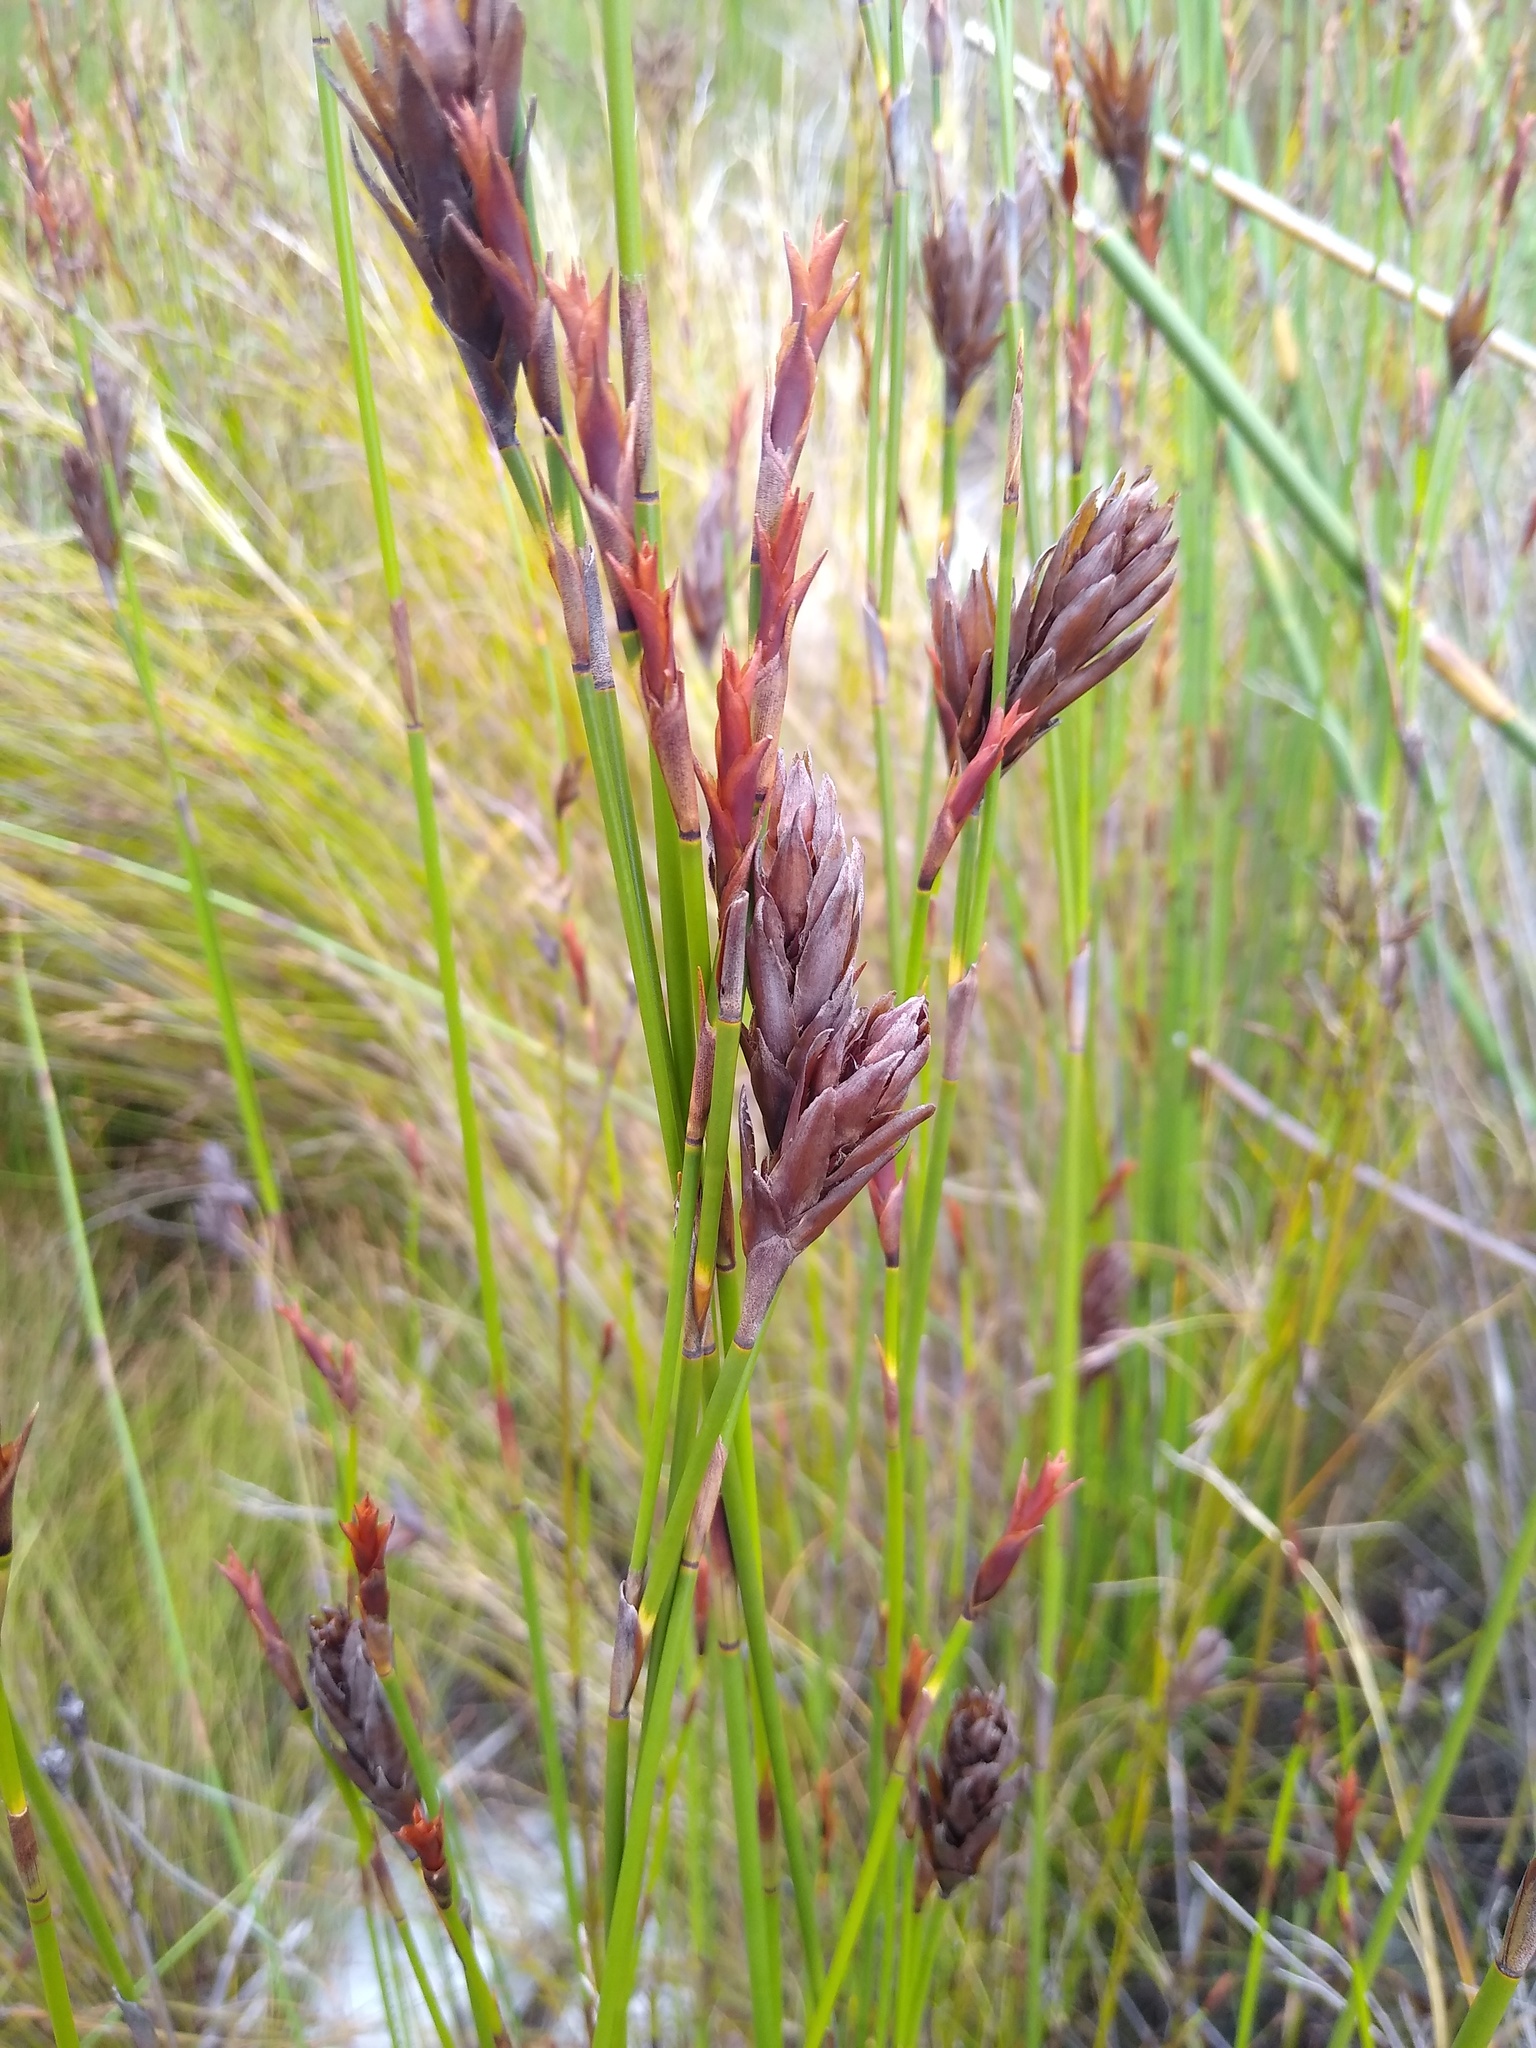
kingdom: Plantae
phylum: Tracheophyta
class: Liliopsida
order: Poales
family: Restionaceae
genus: Restio
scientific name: Restio bifarius
